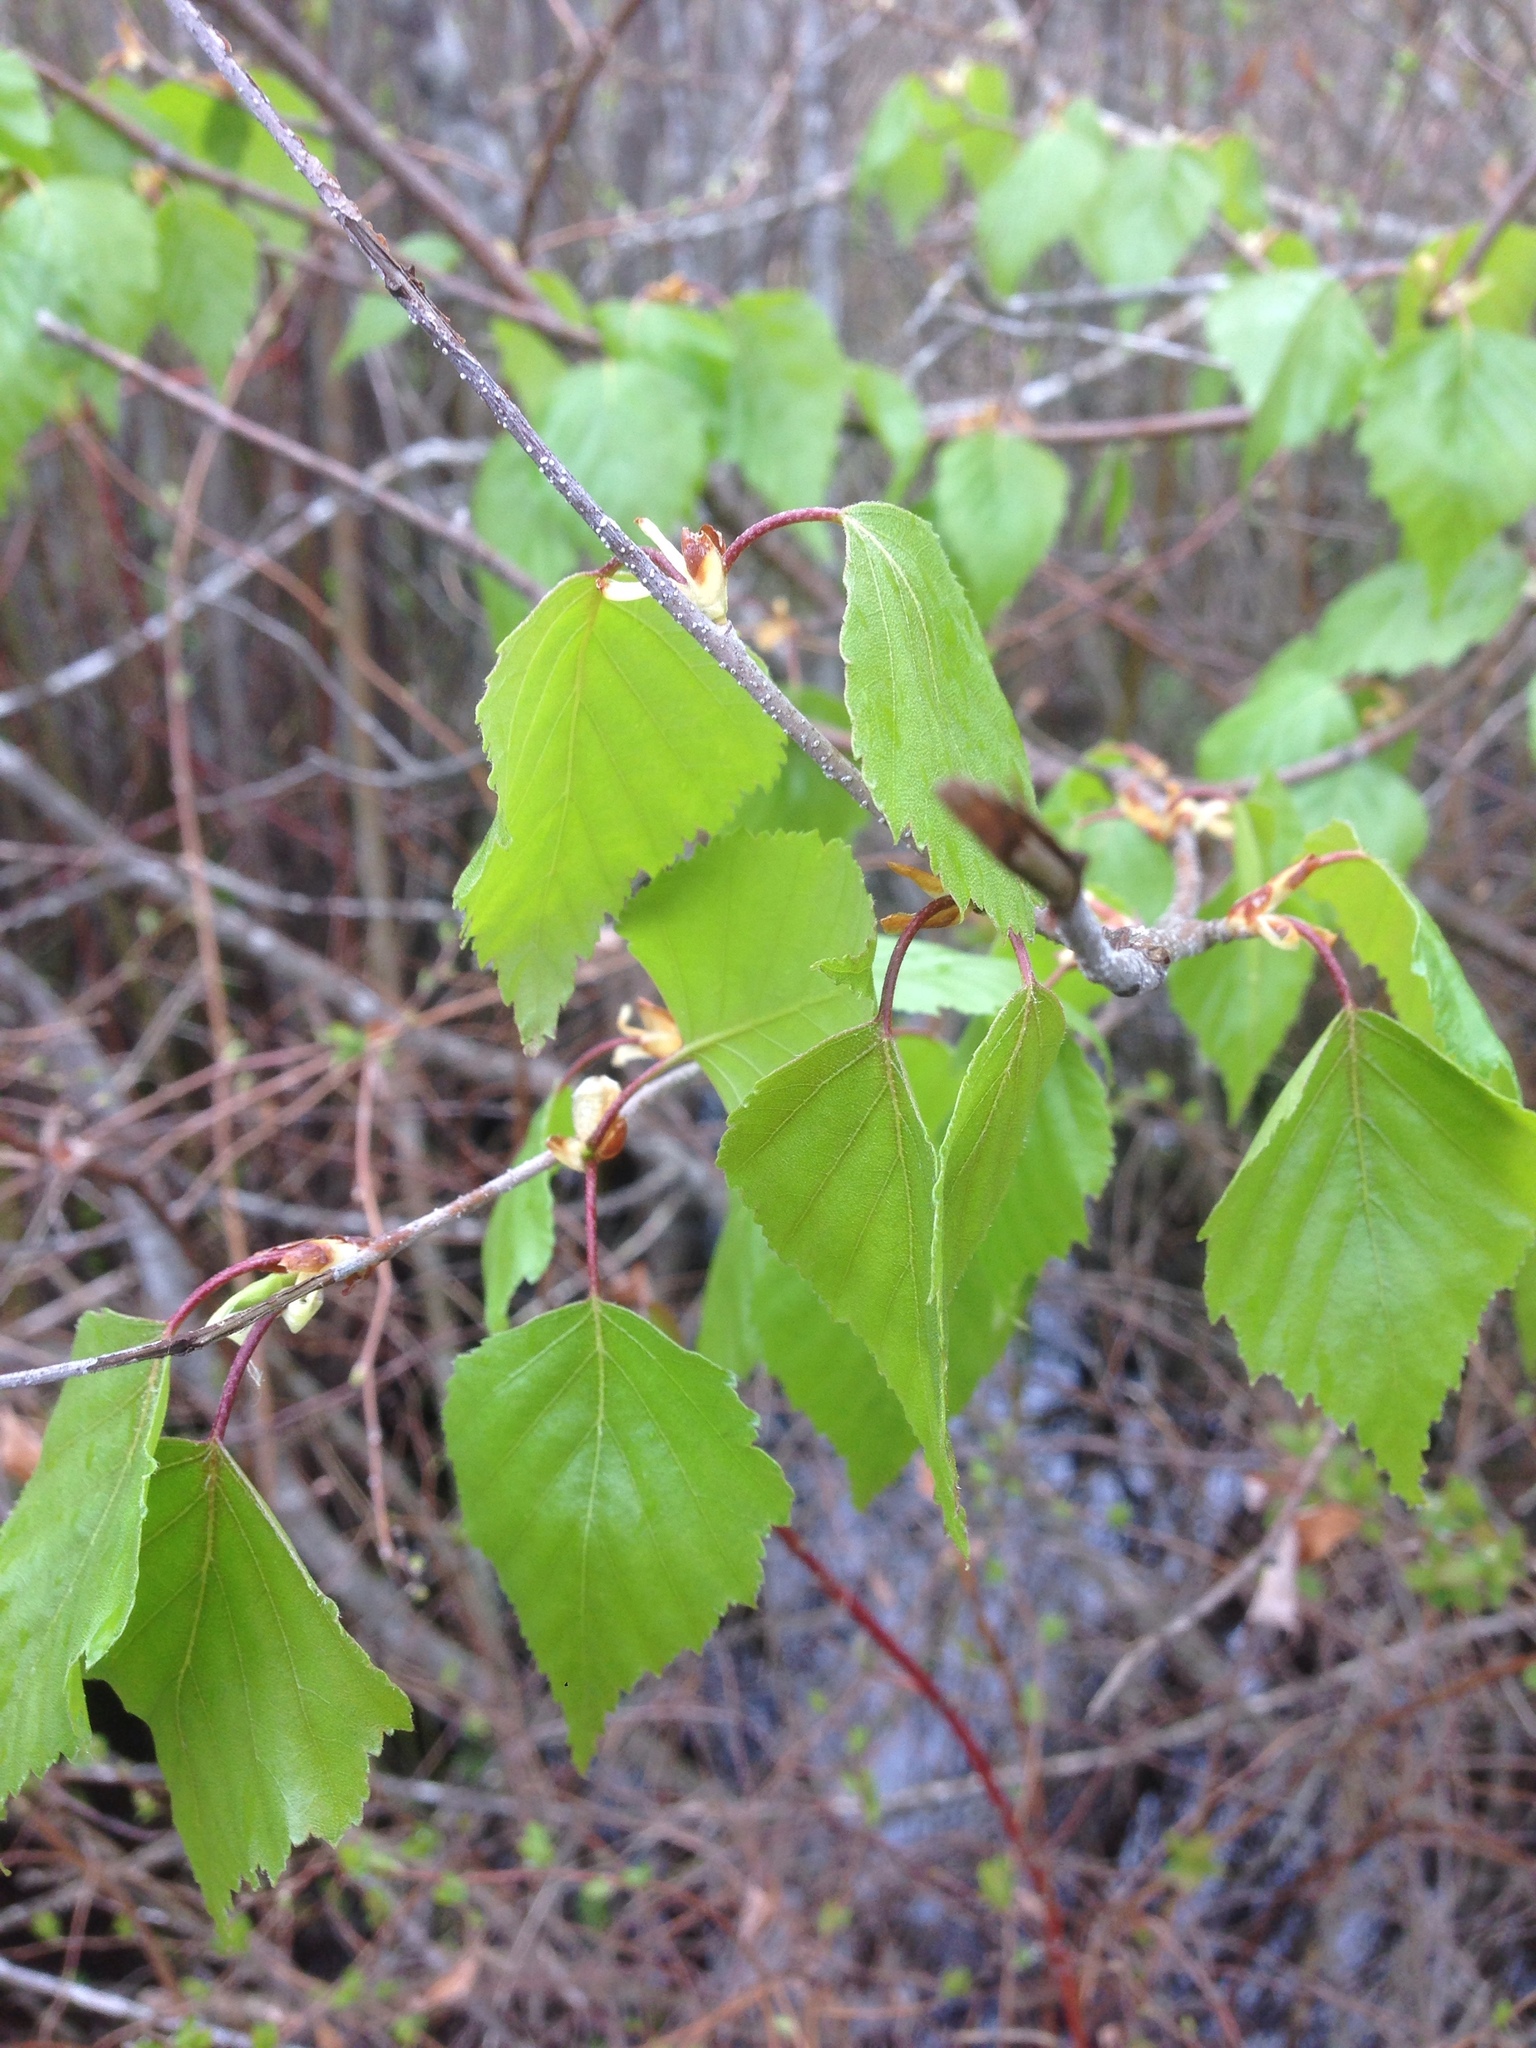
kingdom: Plantae
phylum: Tracheophyta
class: Magnoliopsida
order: Fagales
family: Betulaceae
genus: Betula
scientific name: Betula pendula
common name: Silver birch
